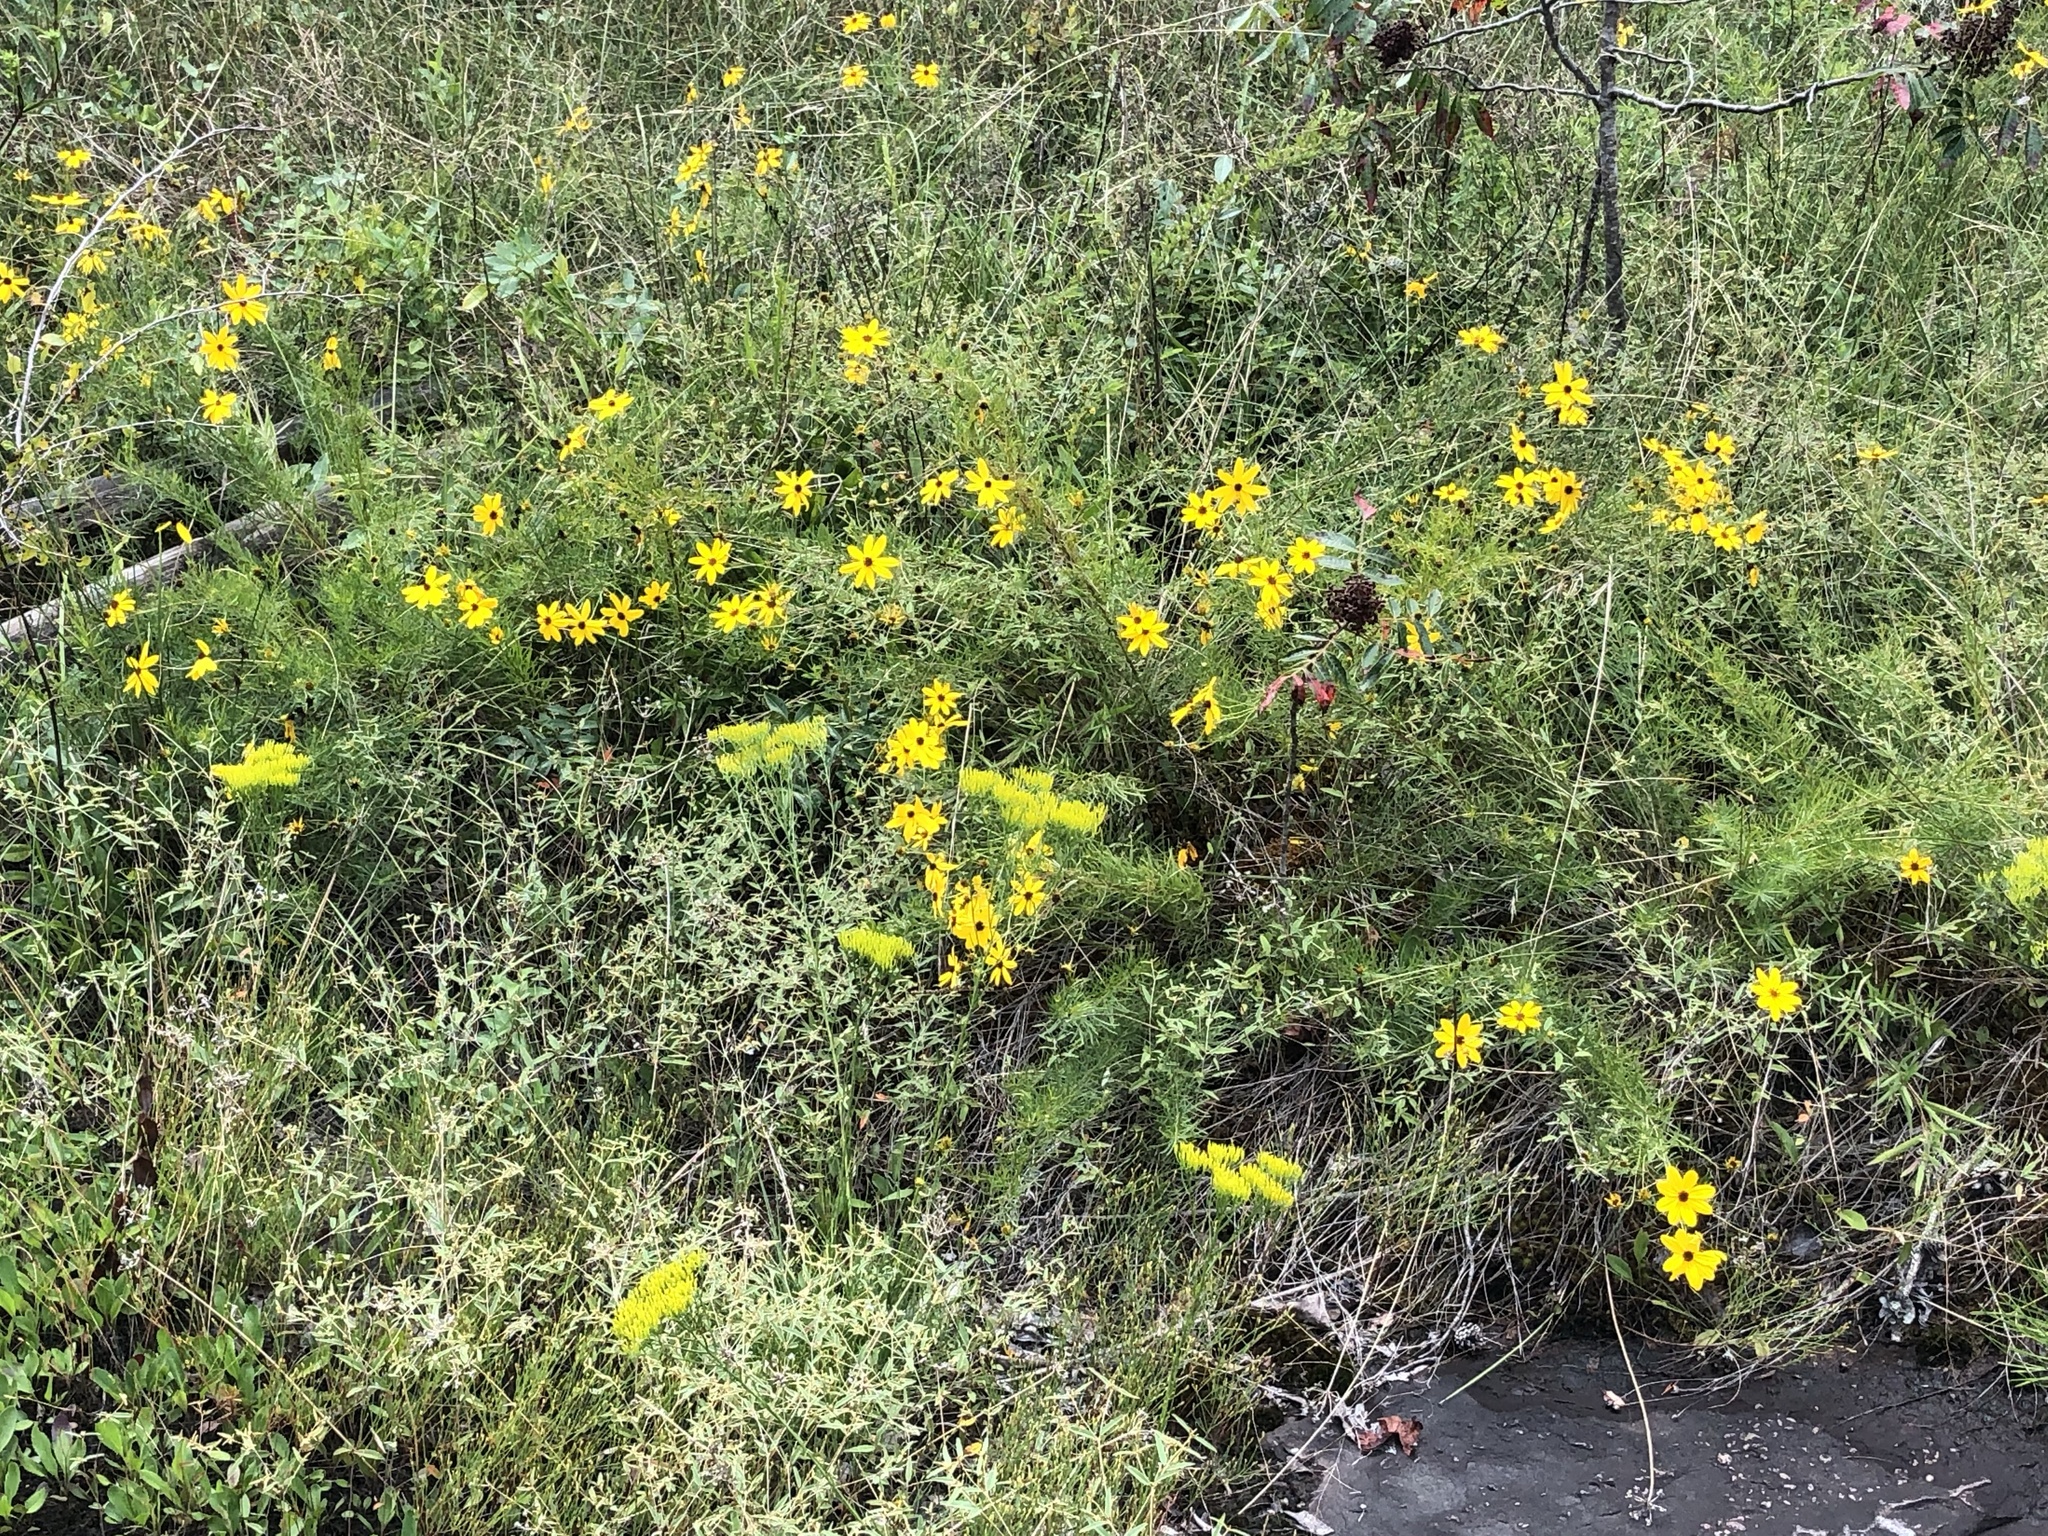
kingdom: Plantae
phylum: Tracheophyta
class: Magnoliopsida
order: Asterales
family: Asteraceae
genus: Coreopsis
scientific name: Coreopsis pulchra
